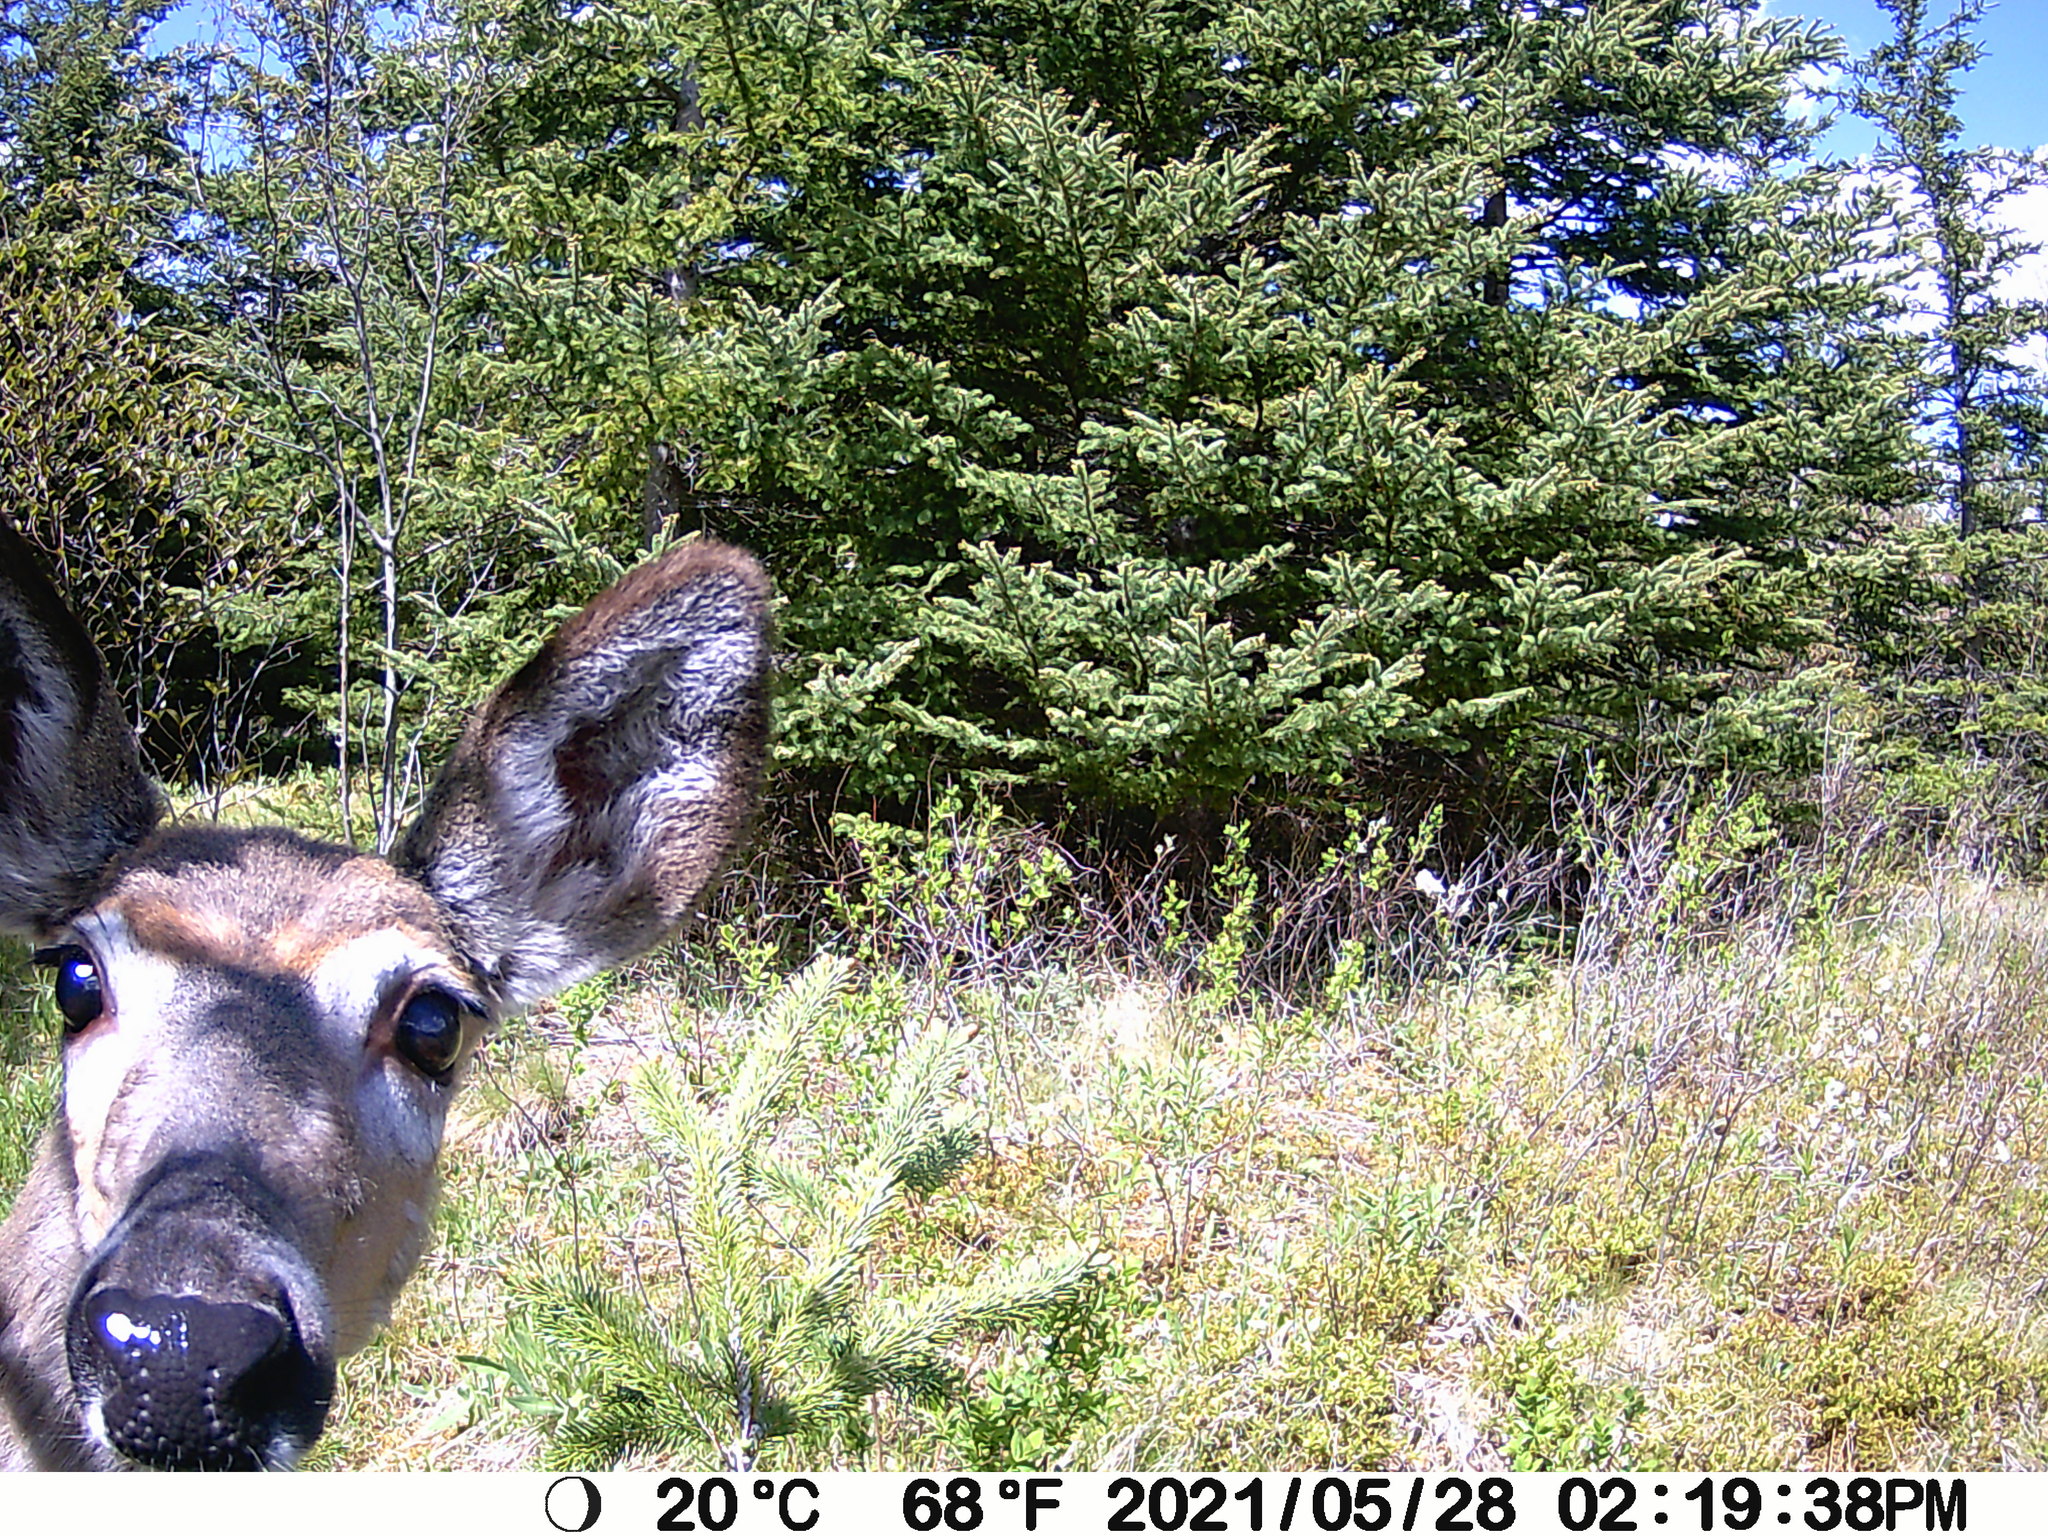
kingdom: Animalia
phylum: Chordata
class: Mammalia
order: Artiodactyla
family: Cervidae
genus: Odocoileus
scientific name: Odocoileus virginianus
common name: White-tailed deer
